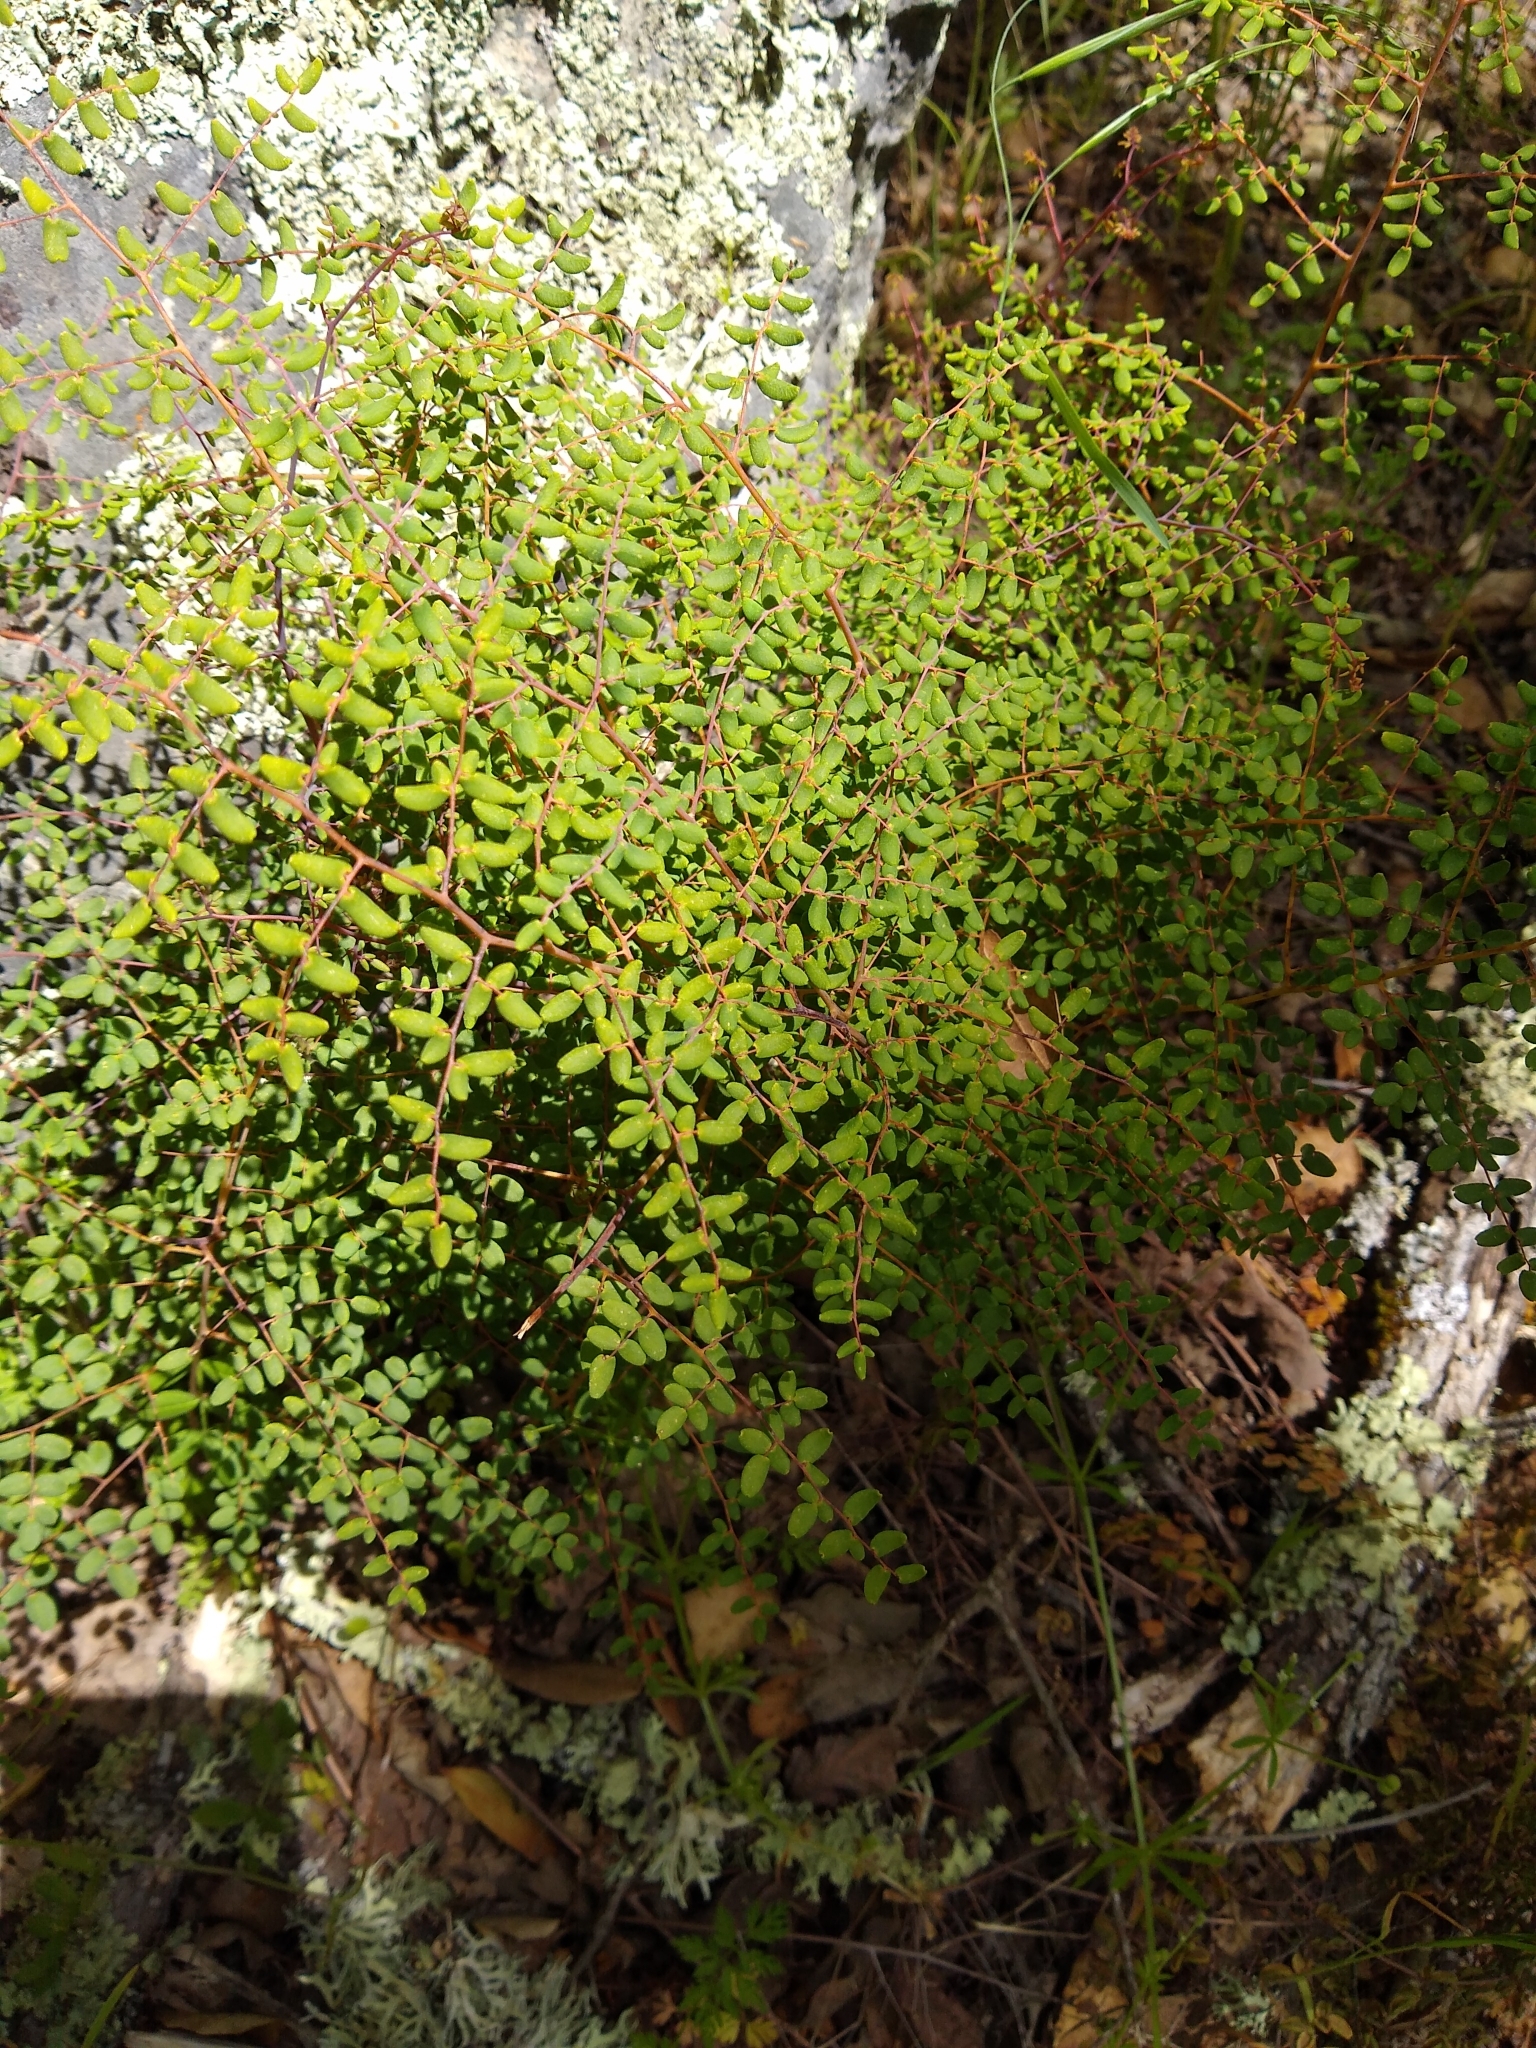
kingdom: Plantae
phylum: Tracheophyta
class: Polypodiopsida
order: Polypodiales
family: Pteridaceae
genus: Pellaea
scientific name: Pellaea andromedifolia
